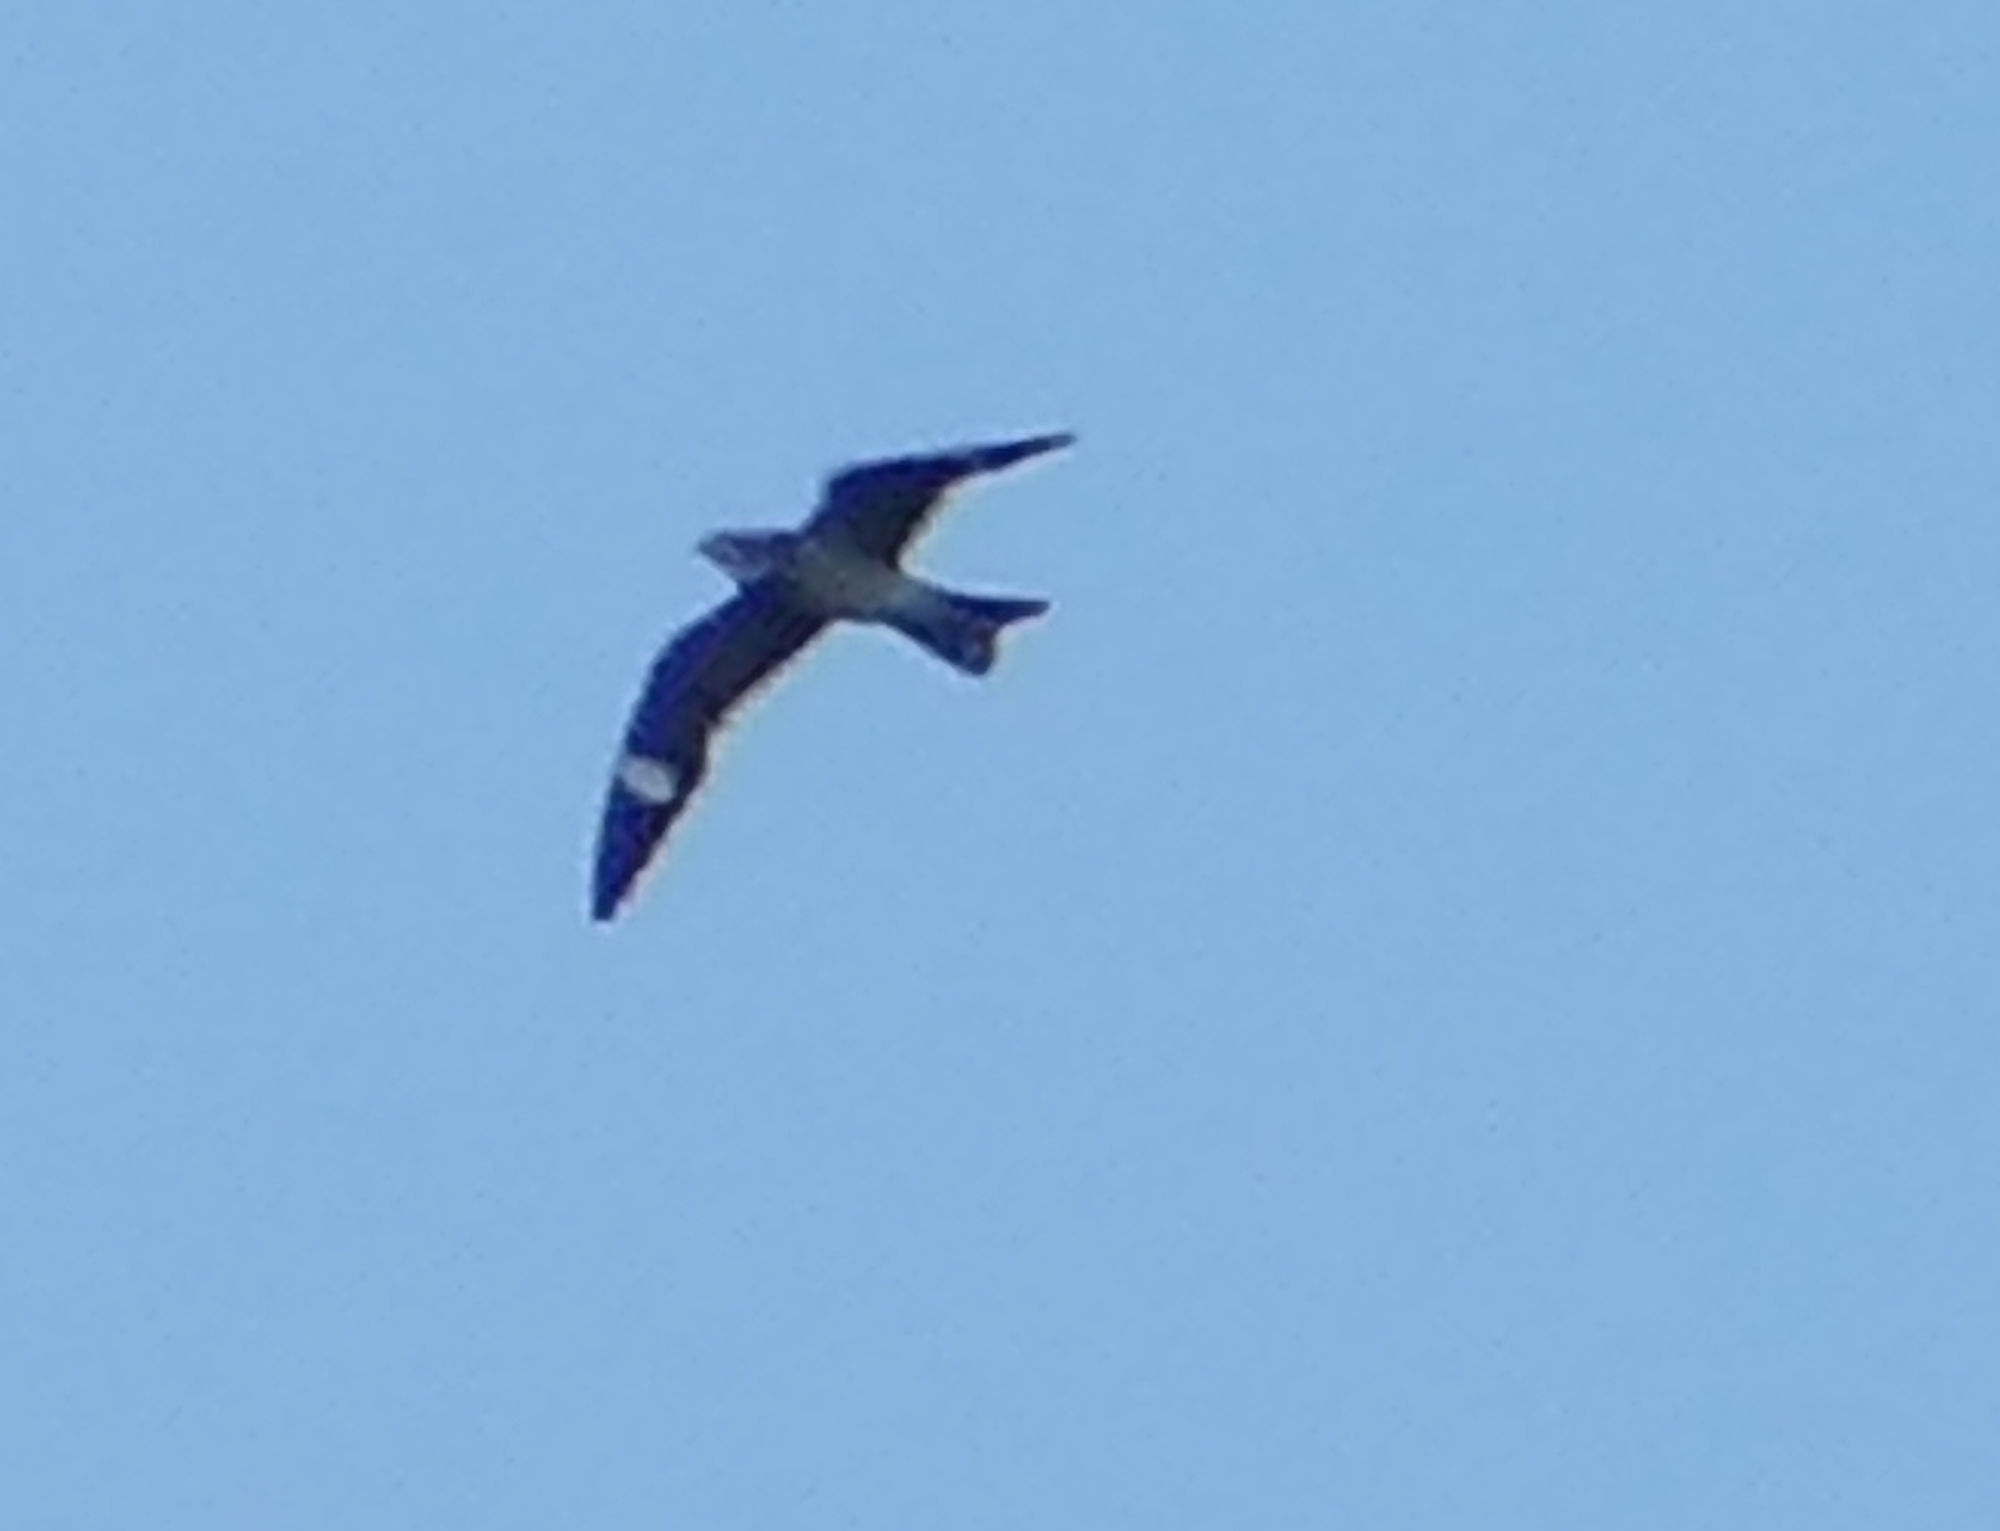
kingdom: Animalia
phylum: Chordata
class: Aves
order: Caprimulgiformes
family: Caprimulgidae
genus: Chordeiles
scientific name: Chordeiles minor
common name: Common nighthawk
